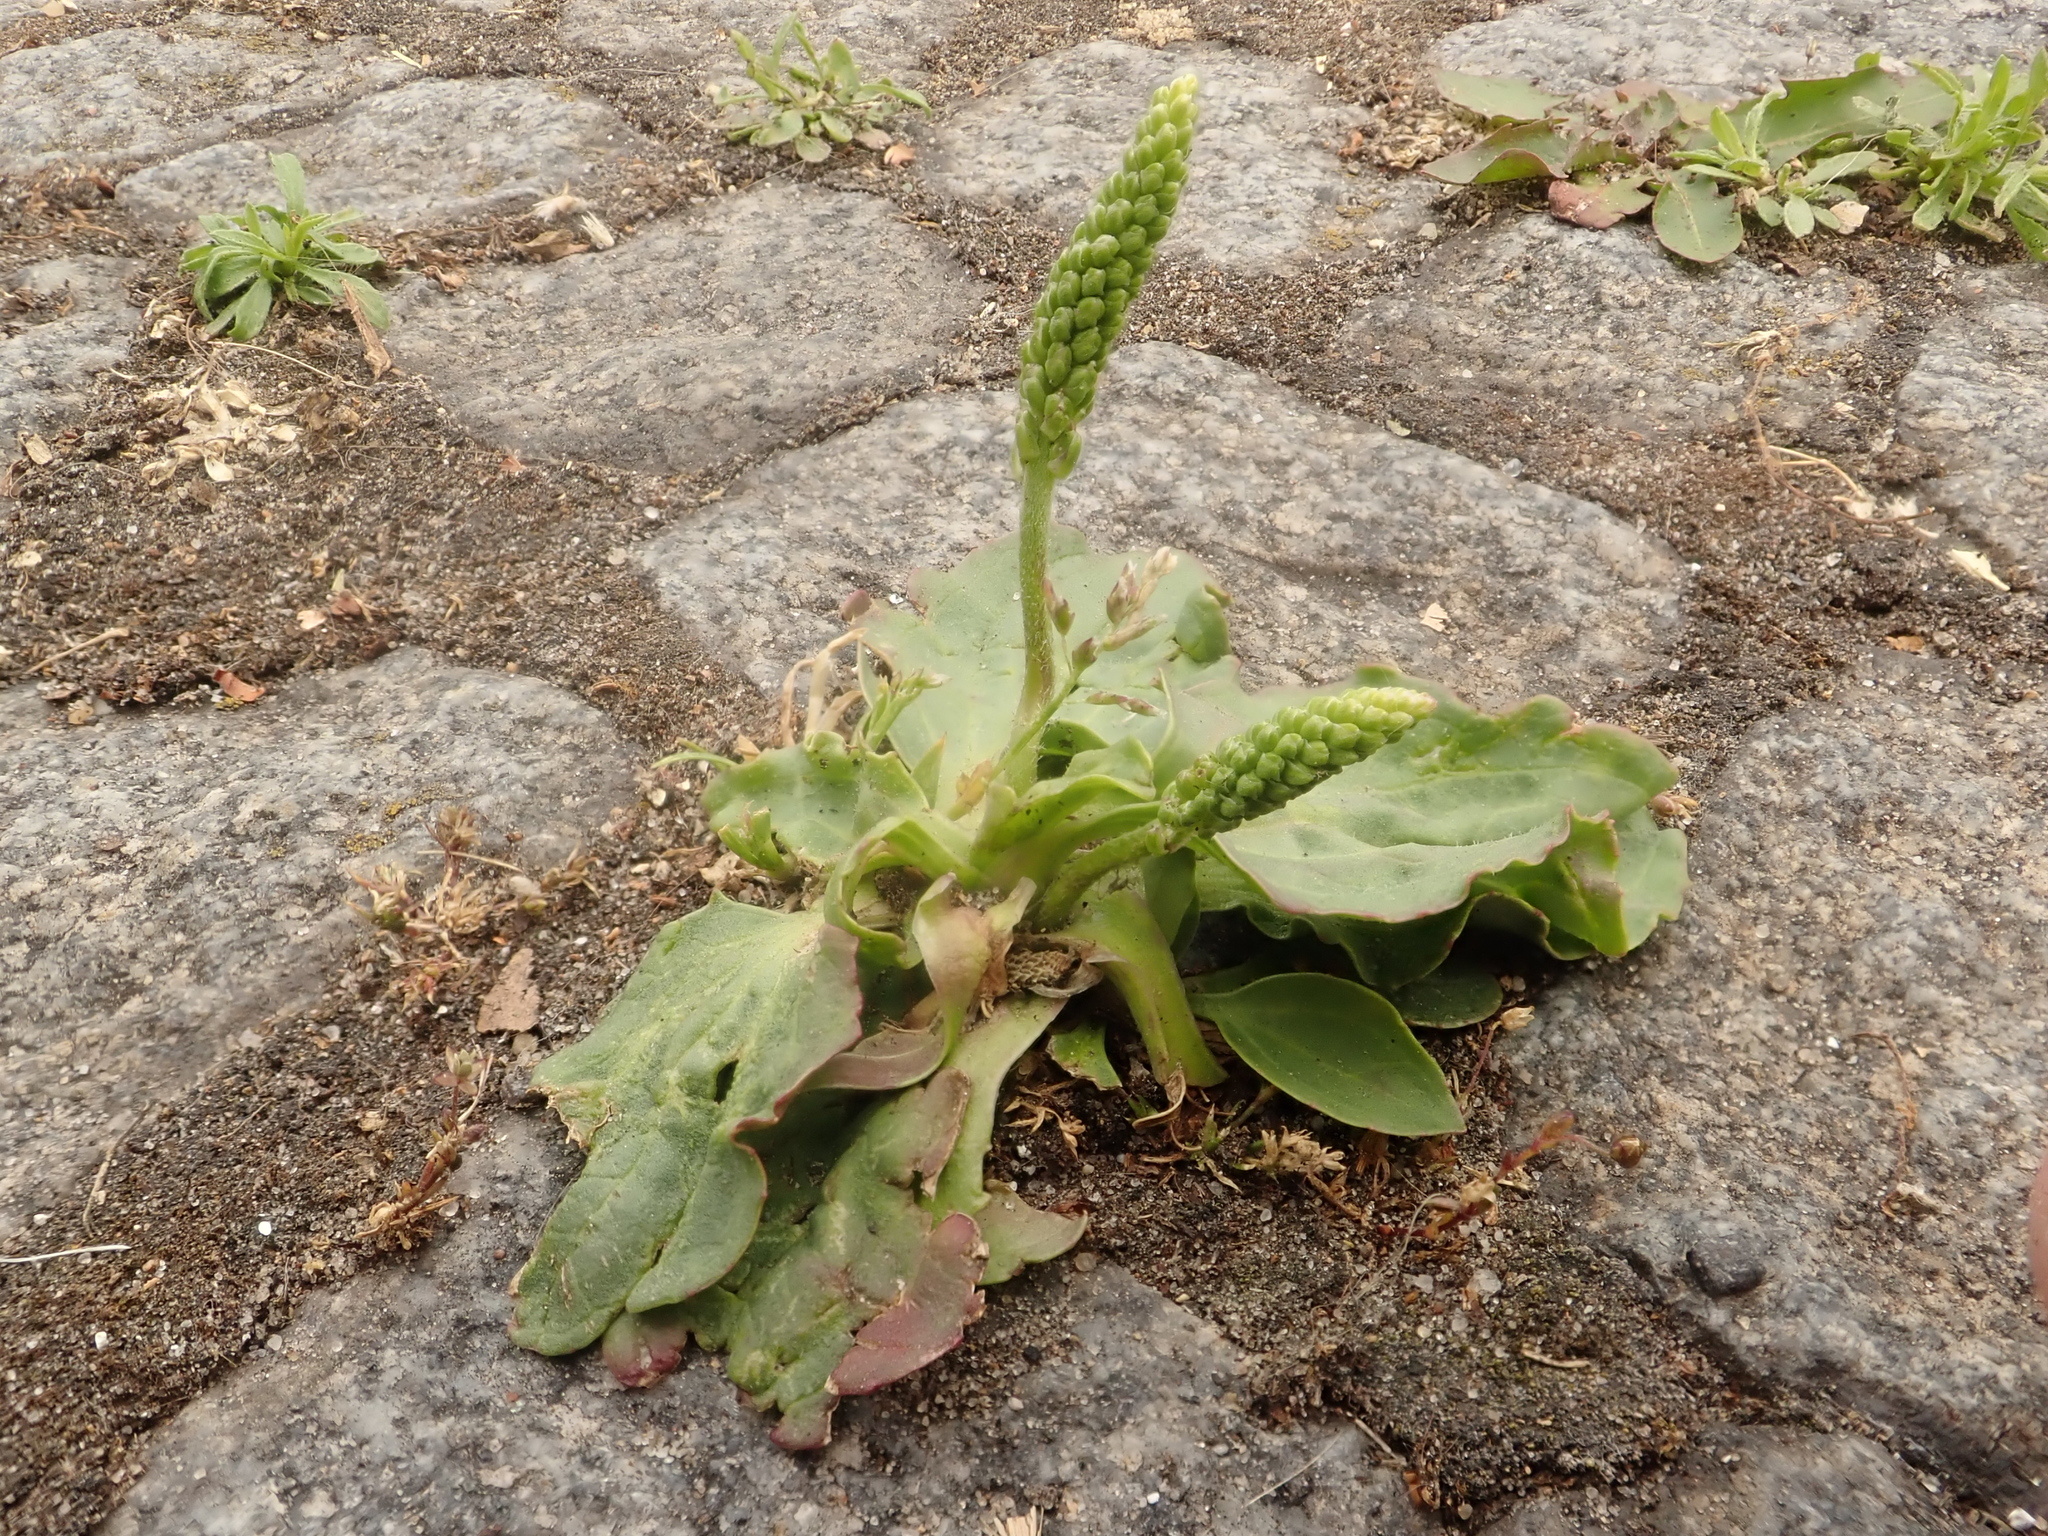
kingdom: Plantae
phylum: Tracheophyta
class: Magnoliopsida
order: Lamiales
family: Plantaginaceae
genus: Plantago
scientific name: Plantago major
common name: Common plantain
